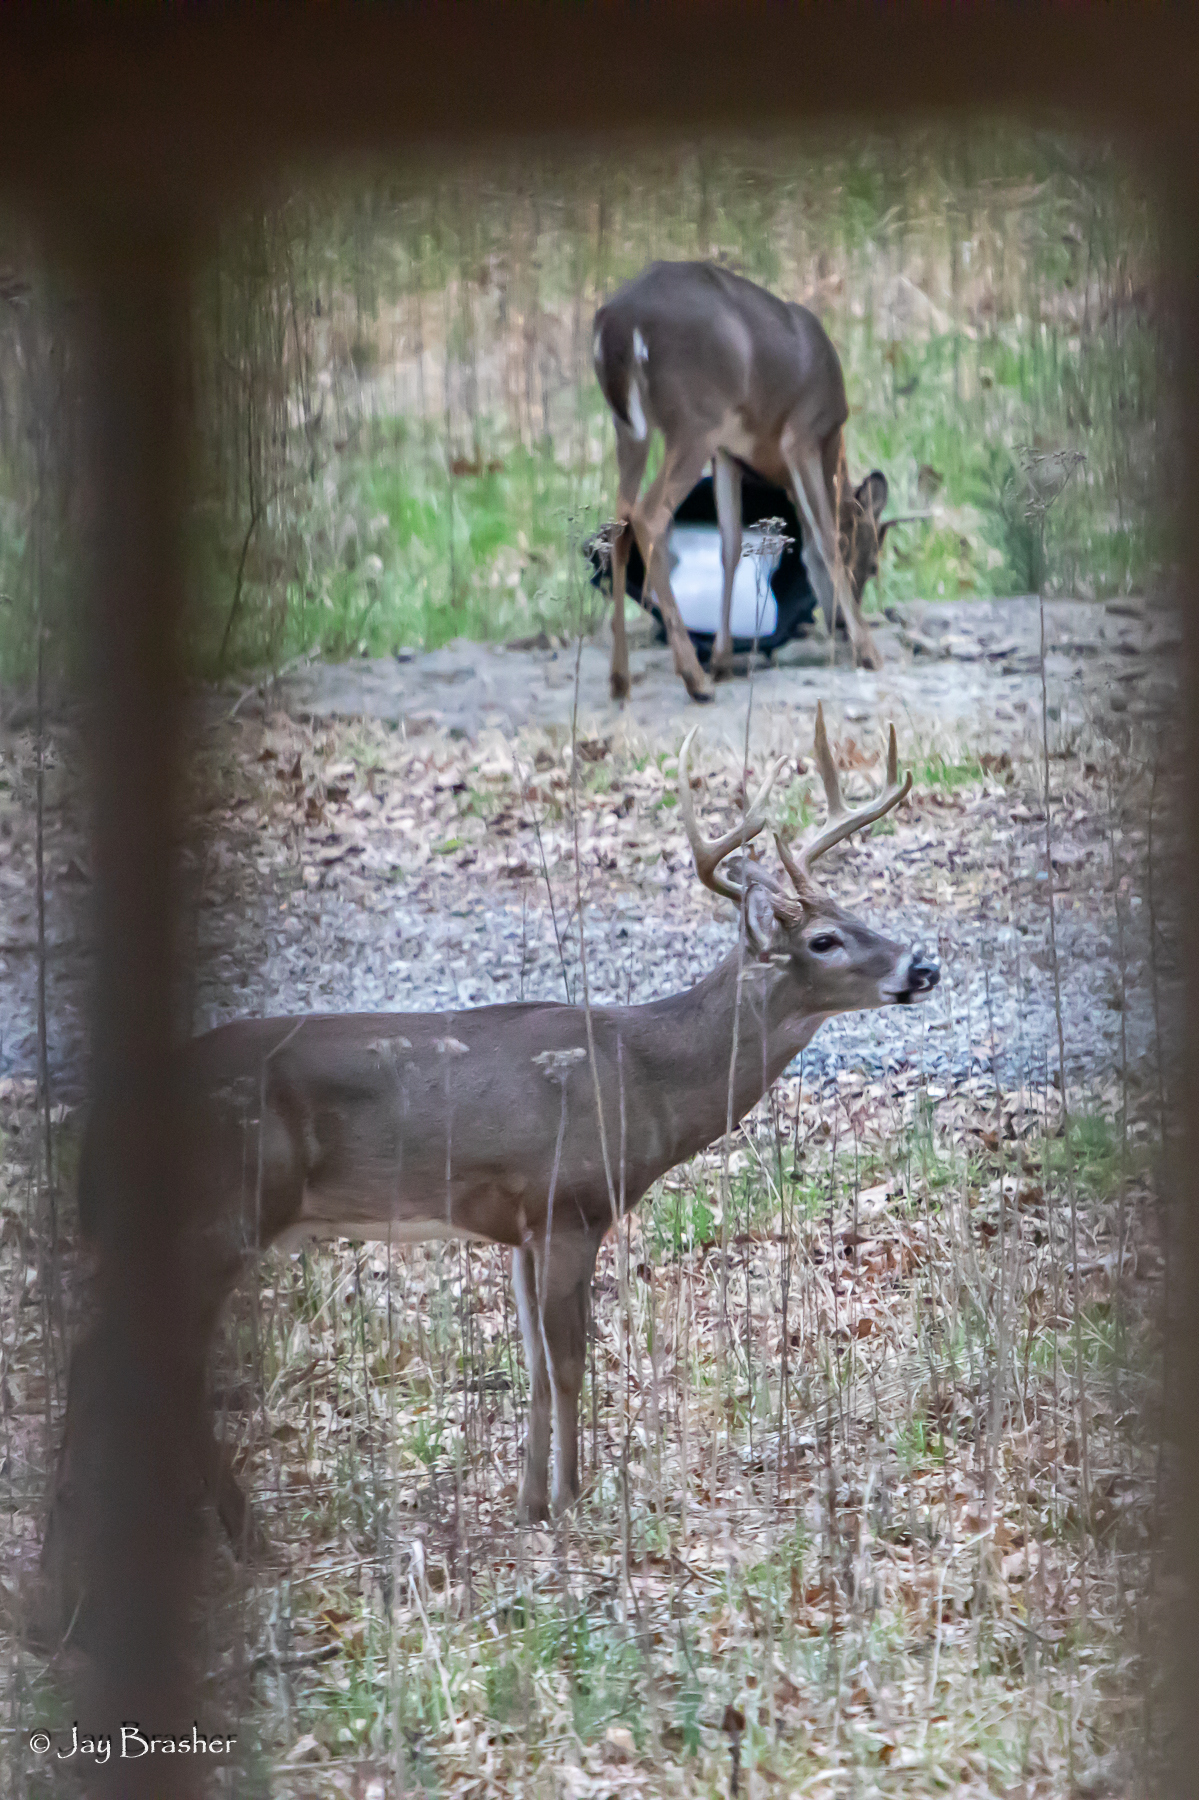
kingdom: Animalia
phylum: Chordata
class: Mammalia
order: Artiodactyla
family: Cervidae
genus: Odocoileus
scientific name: Odocoileus virginianus
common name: White-tailed deer
